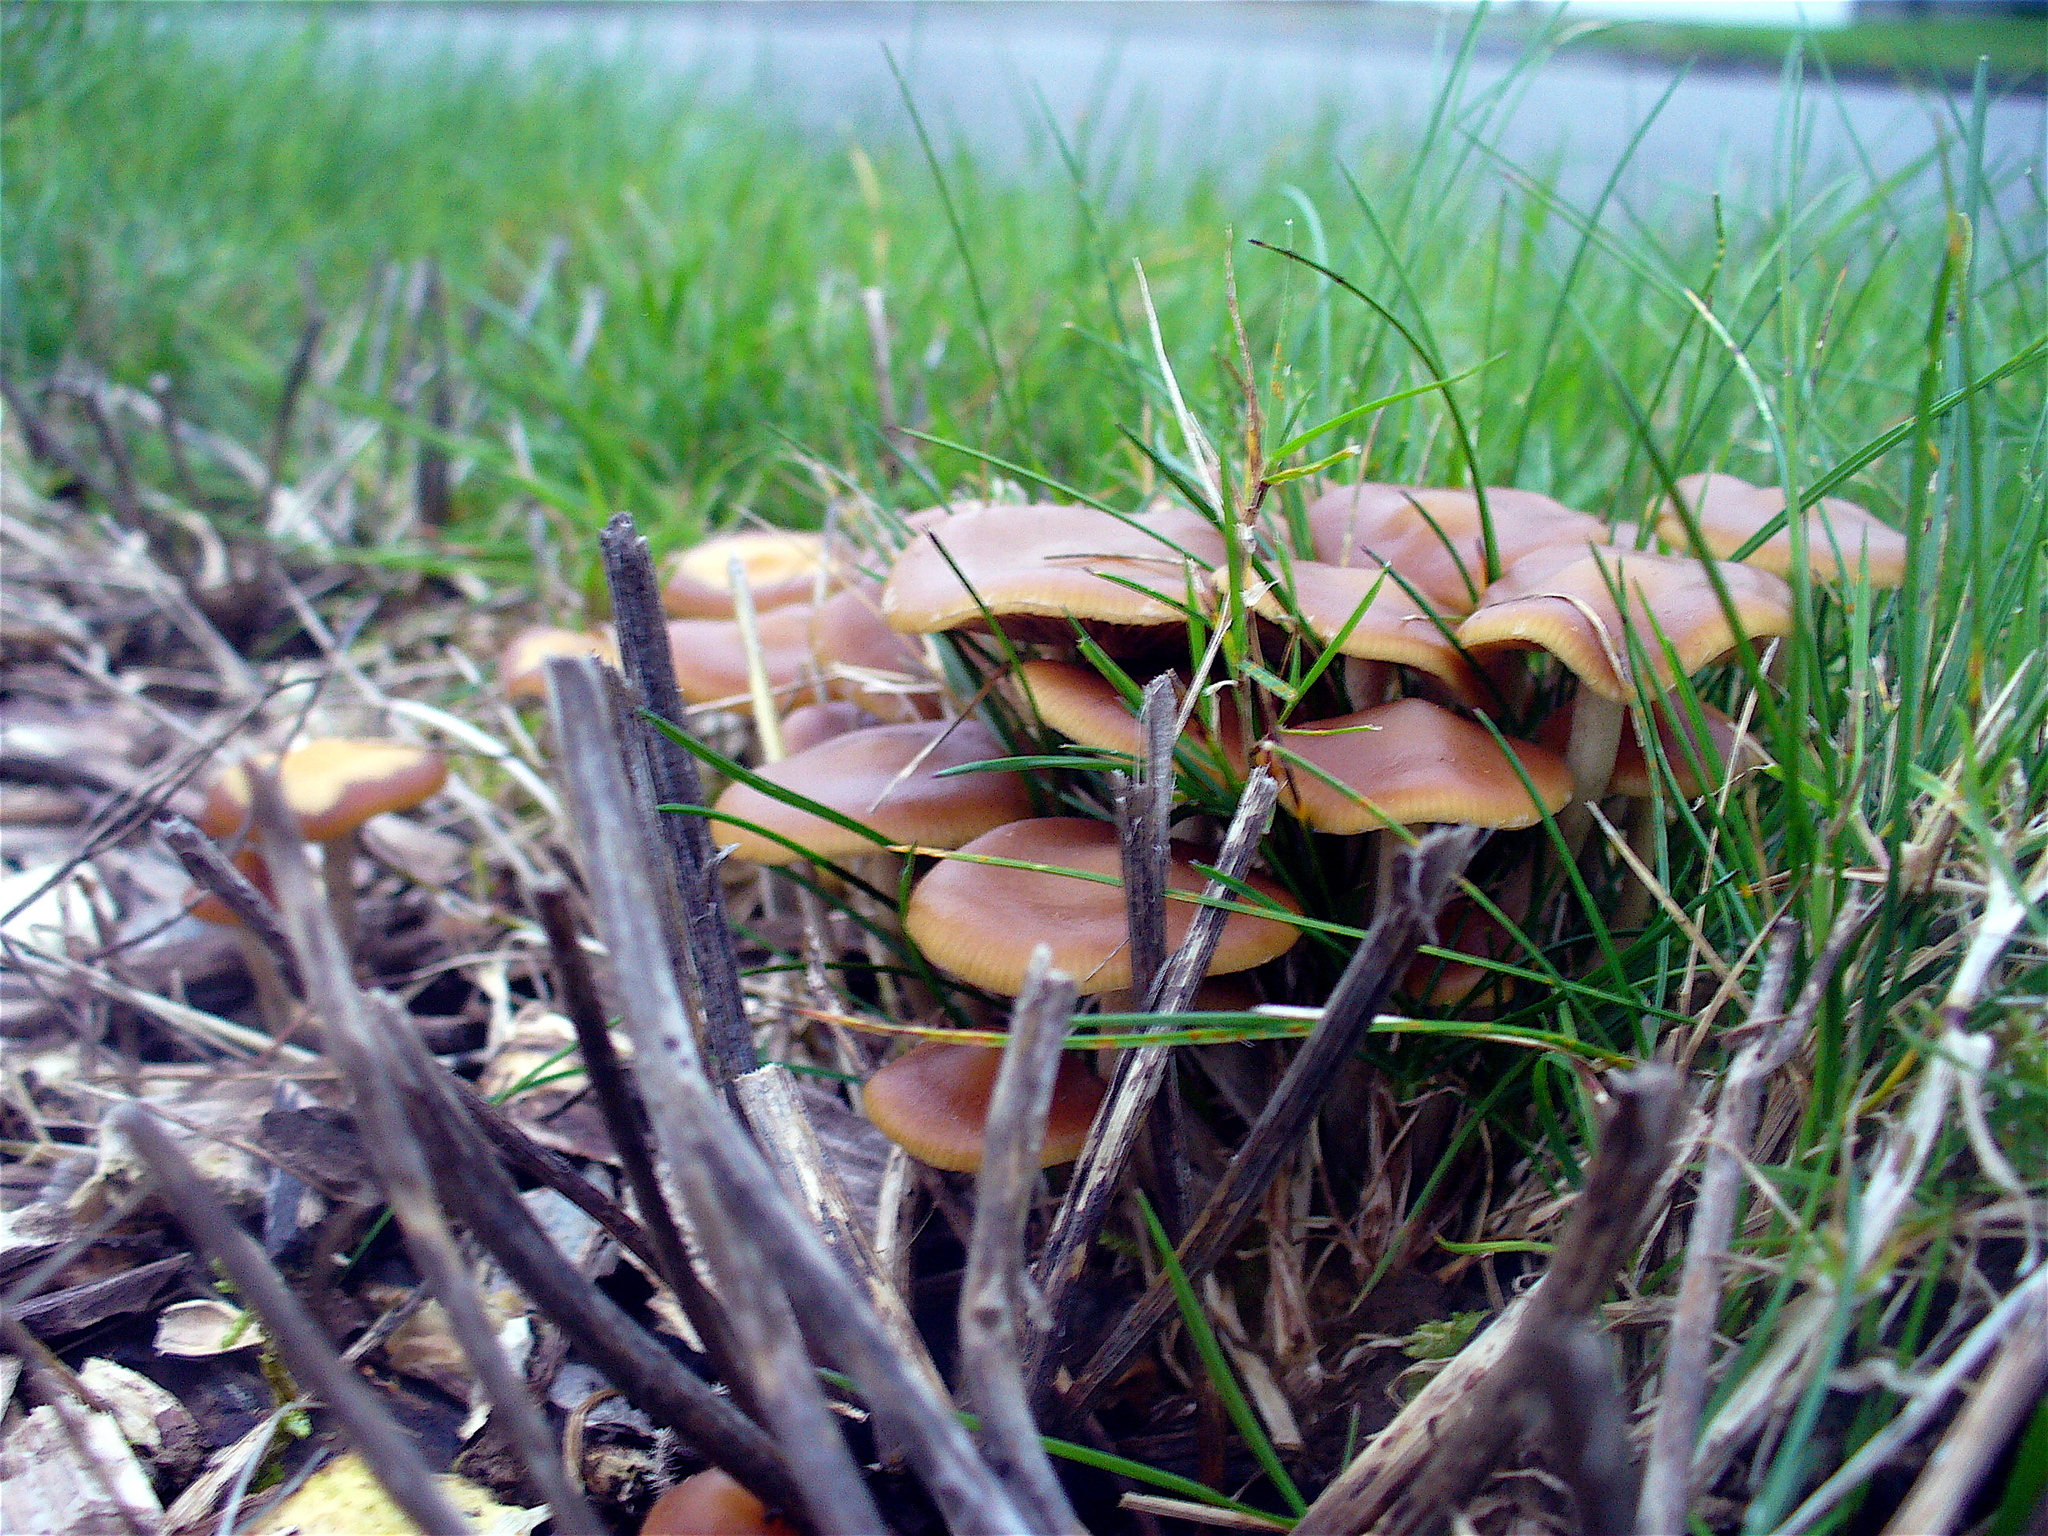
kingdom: Fungi
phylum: Basidiomycota
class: Agaricomycetes
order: Agaricales
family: Hymenogastraceae
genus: Psilocybe
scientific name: Psilocybe cyanescens
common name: Blueleg brownie
